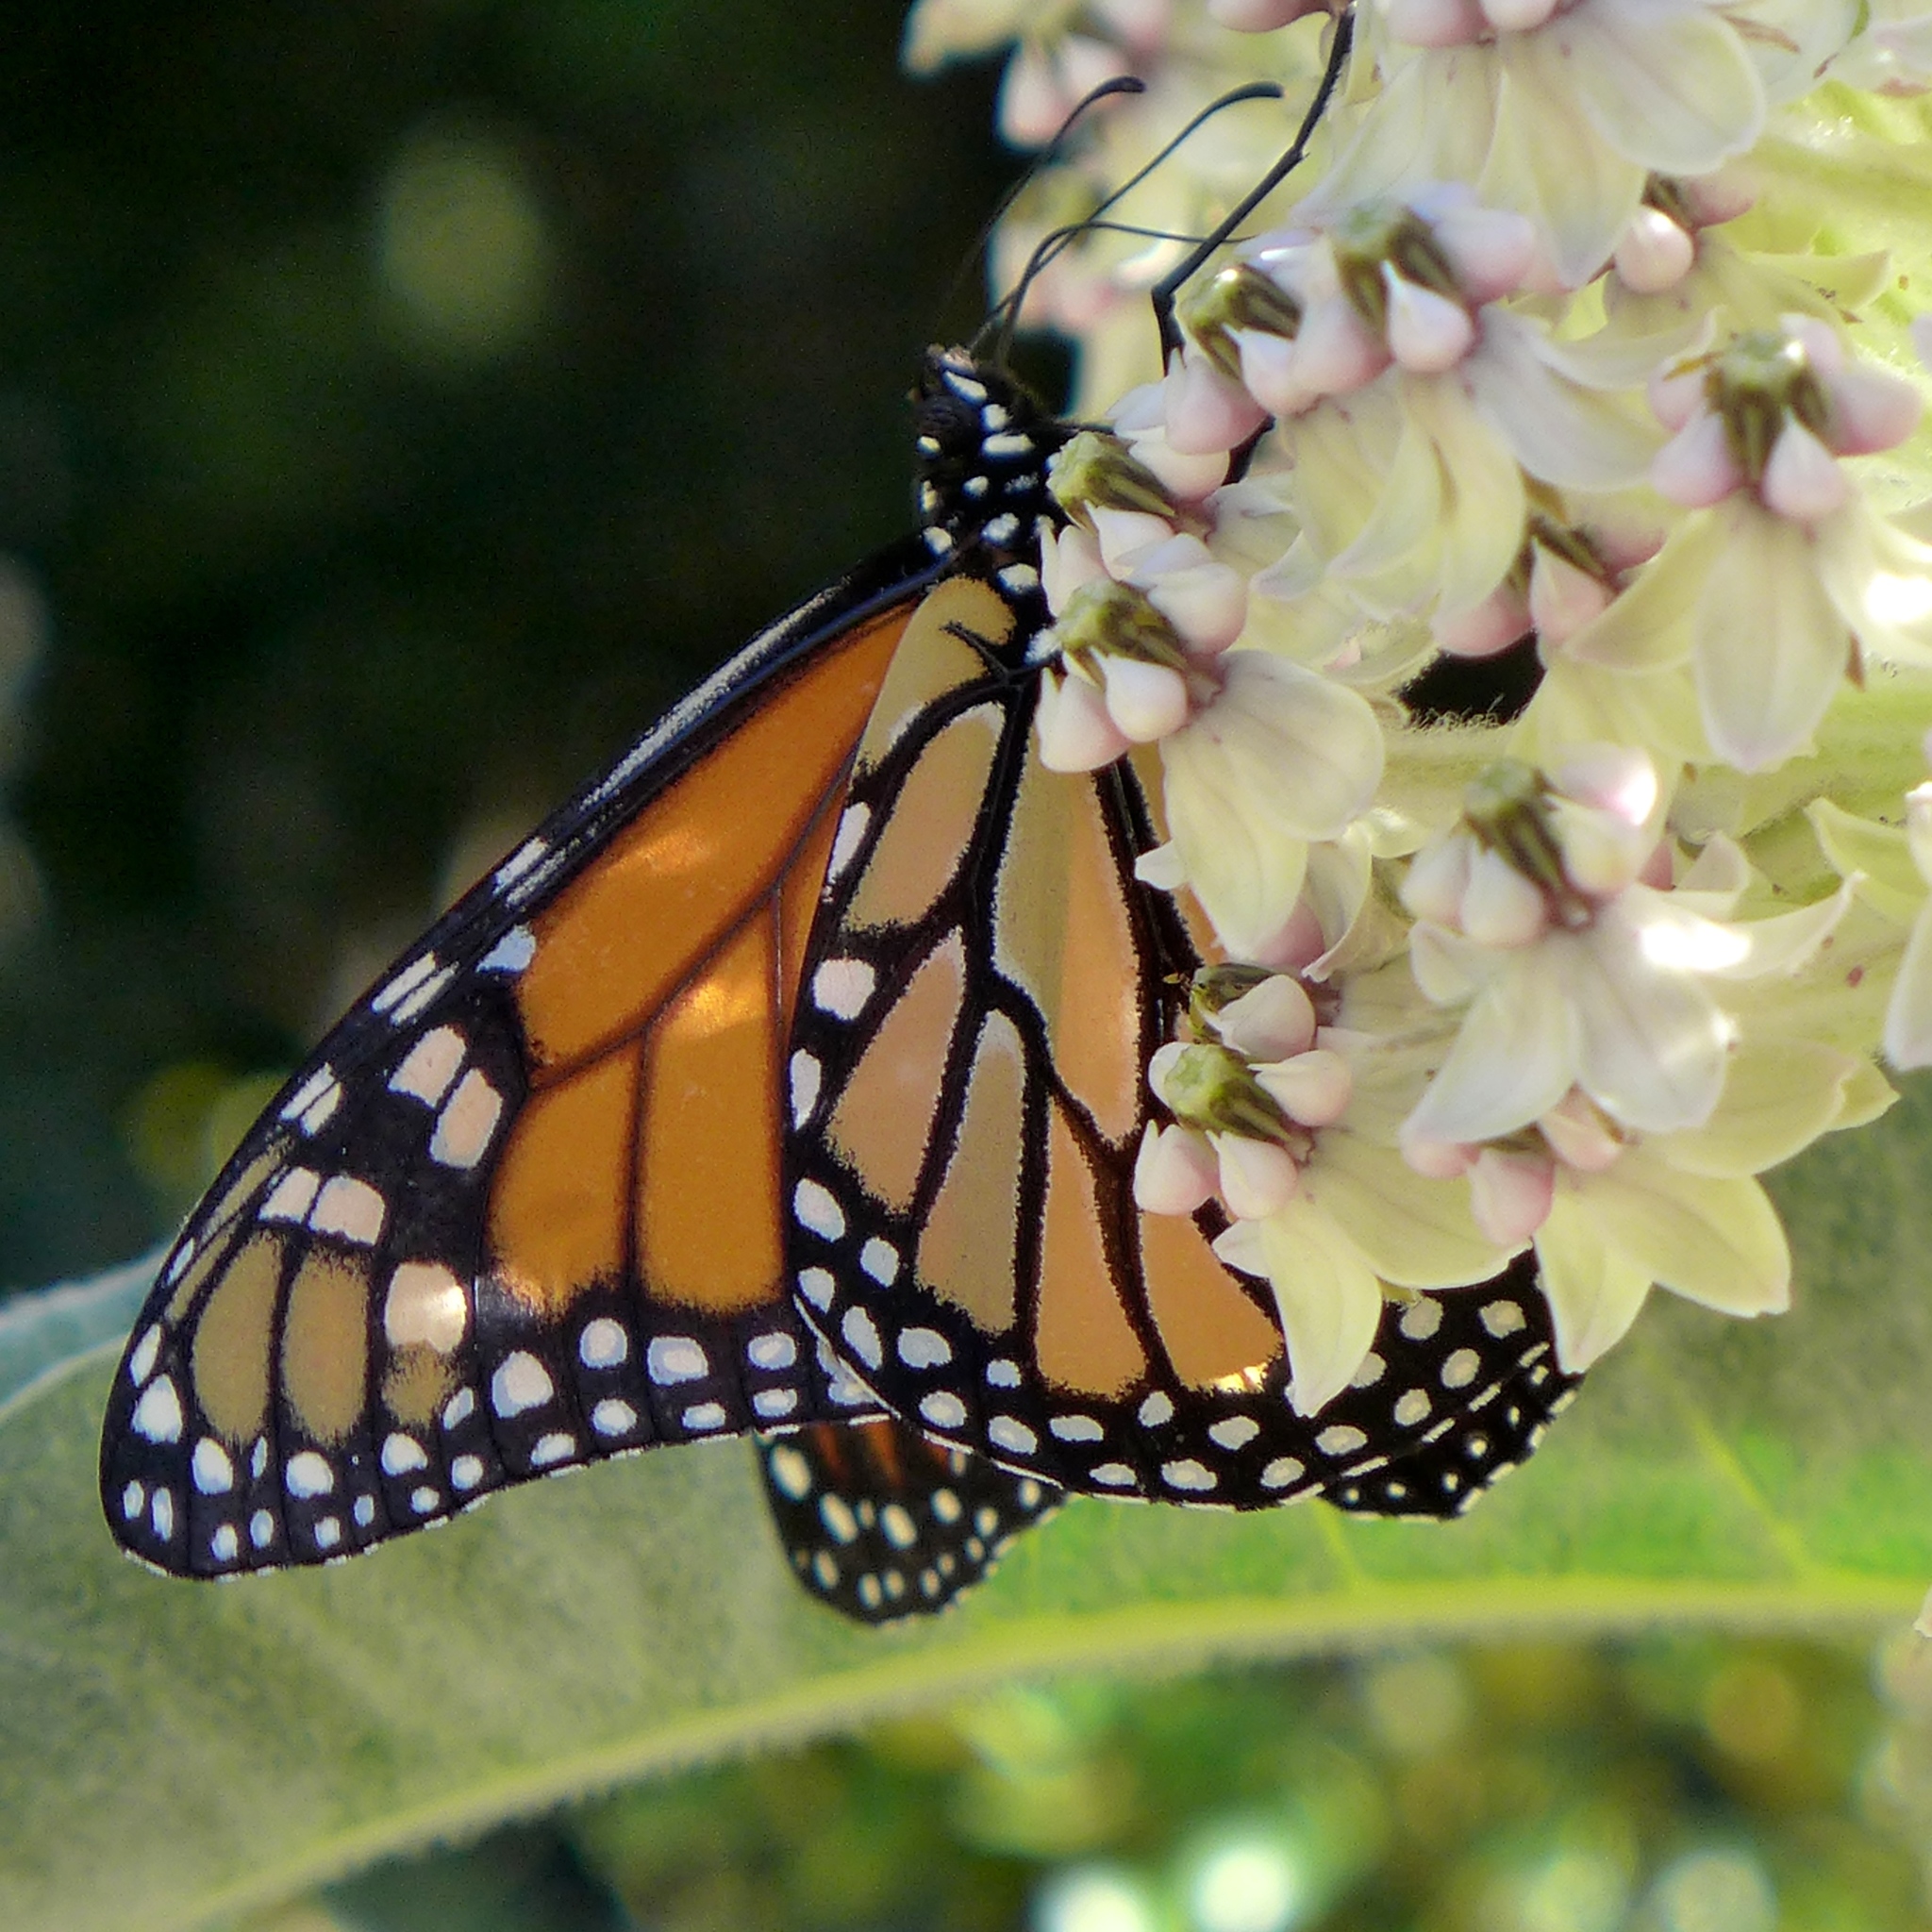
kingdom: Animalia
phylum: Arthropoda
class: Insecta
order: Lepidoptera
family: Nymphalidae
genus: Danaus
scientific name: Danaus plexippus
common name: Monarch
